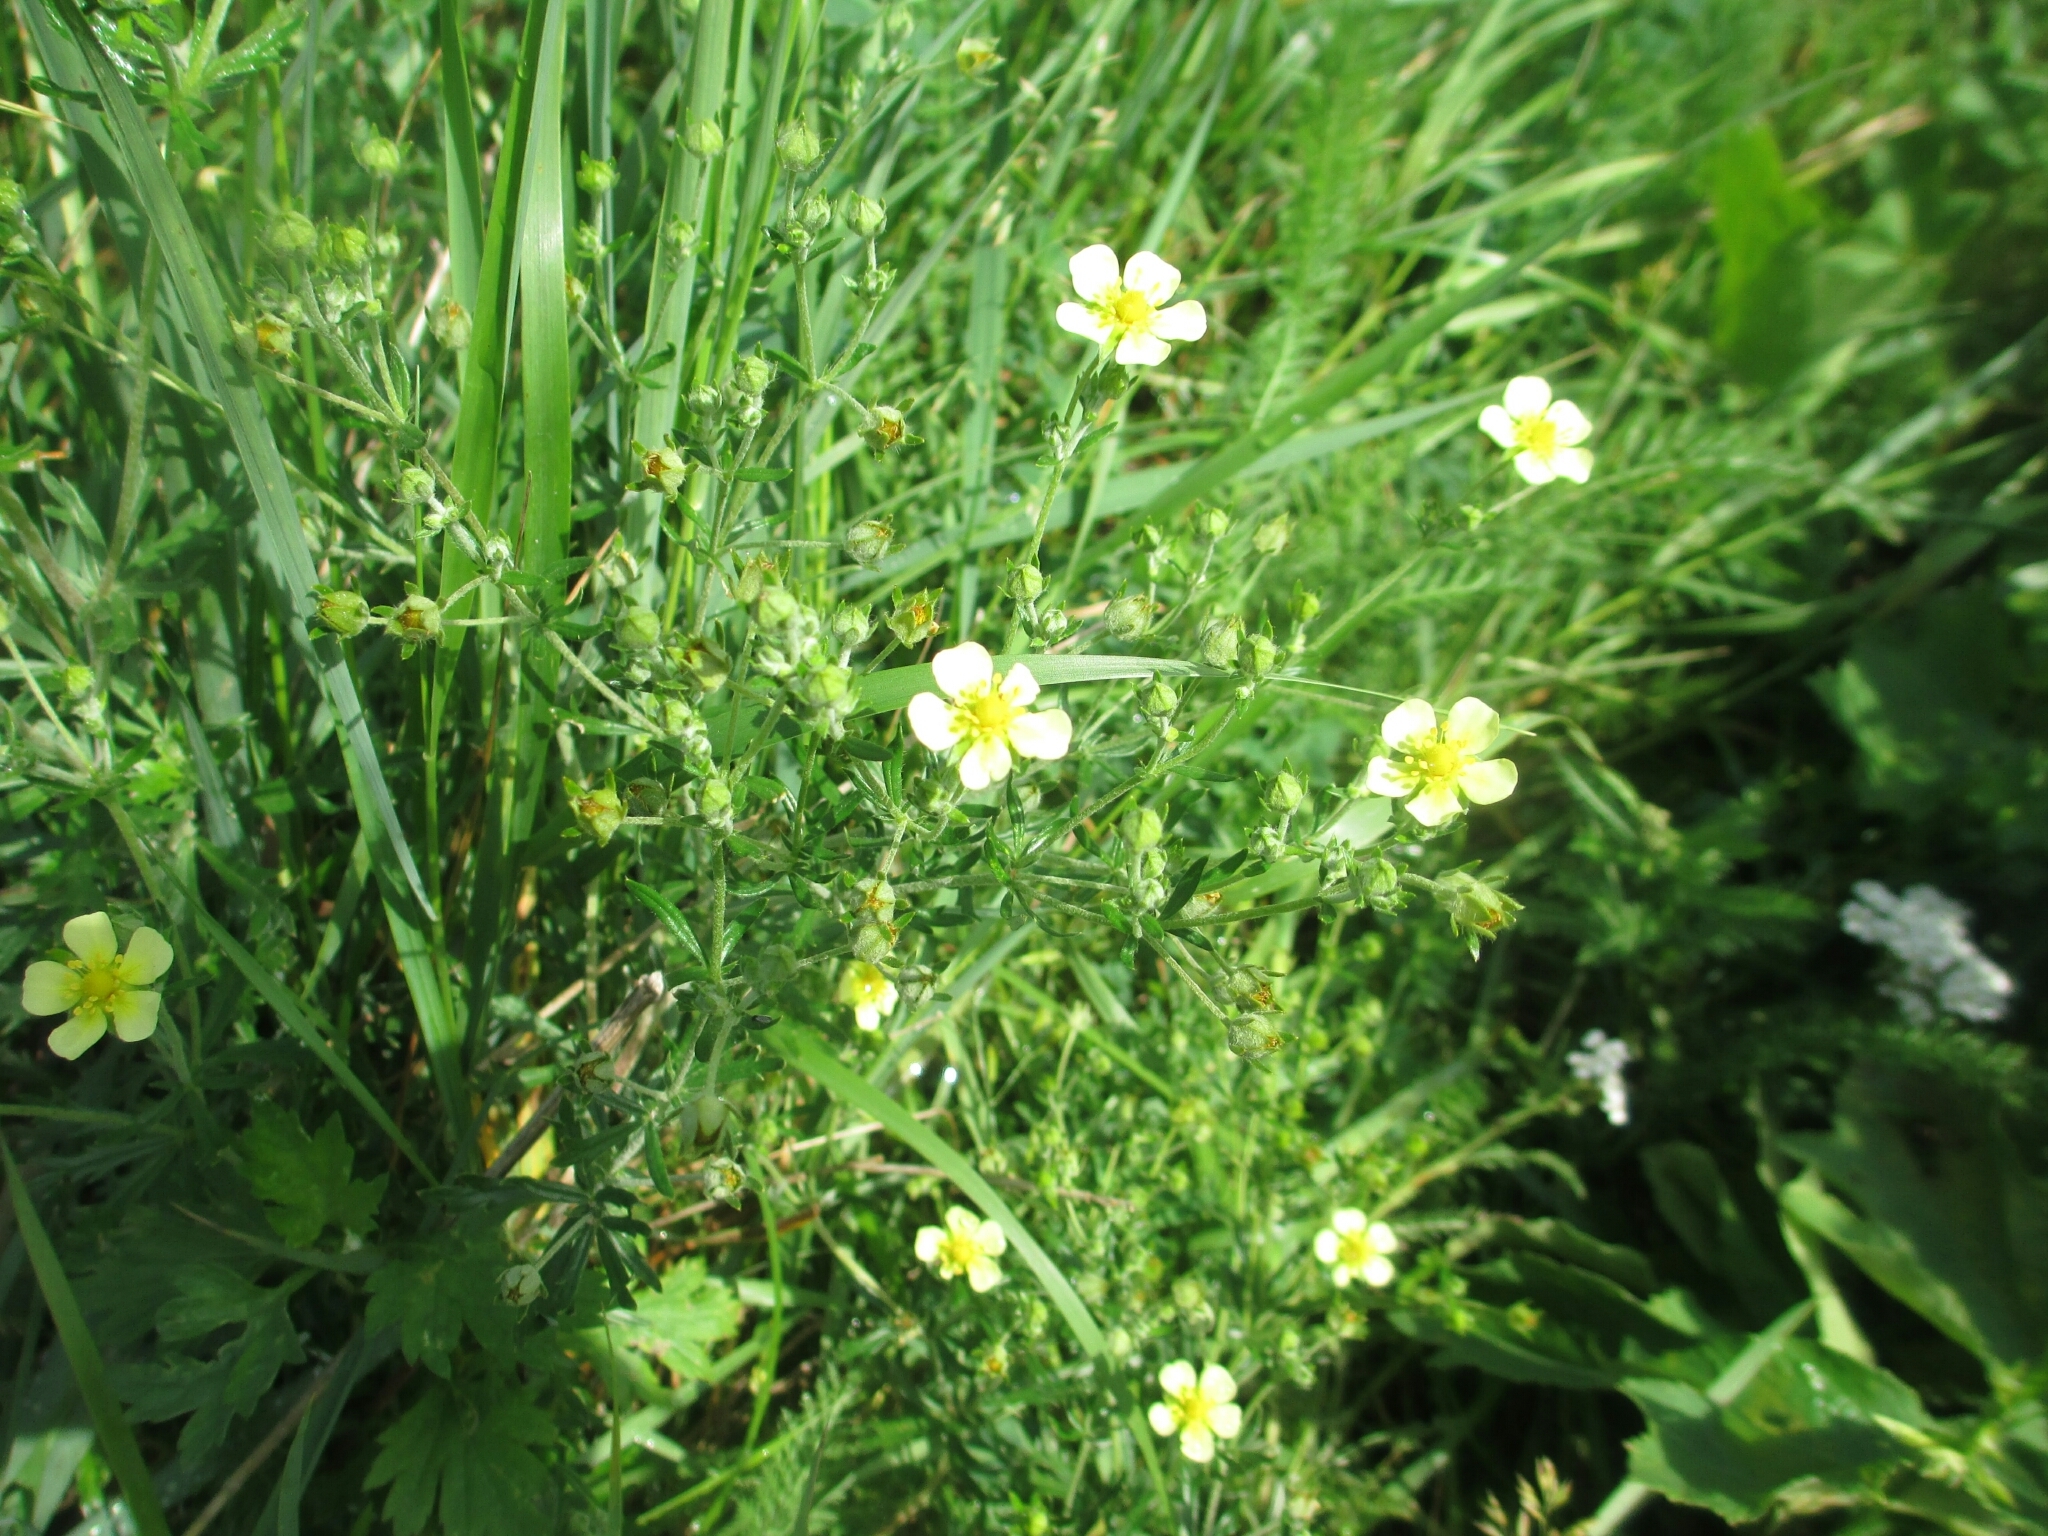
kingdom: Plantae
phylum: Tracheophyta
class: Magnoliopsida
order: Rosales
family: Rosaceae
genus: Potentilla
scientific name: Potentilla argentea
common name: Hoary cinquefoil
